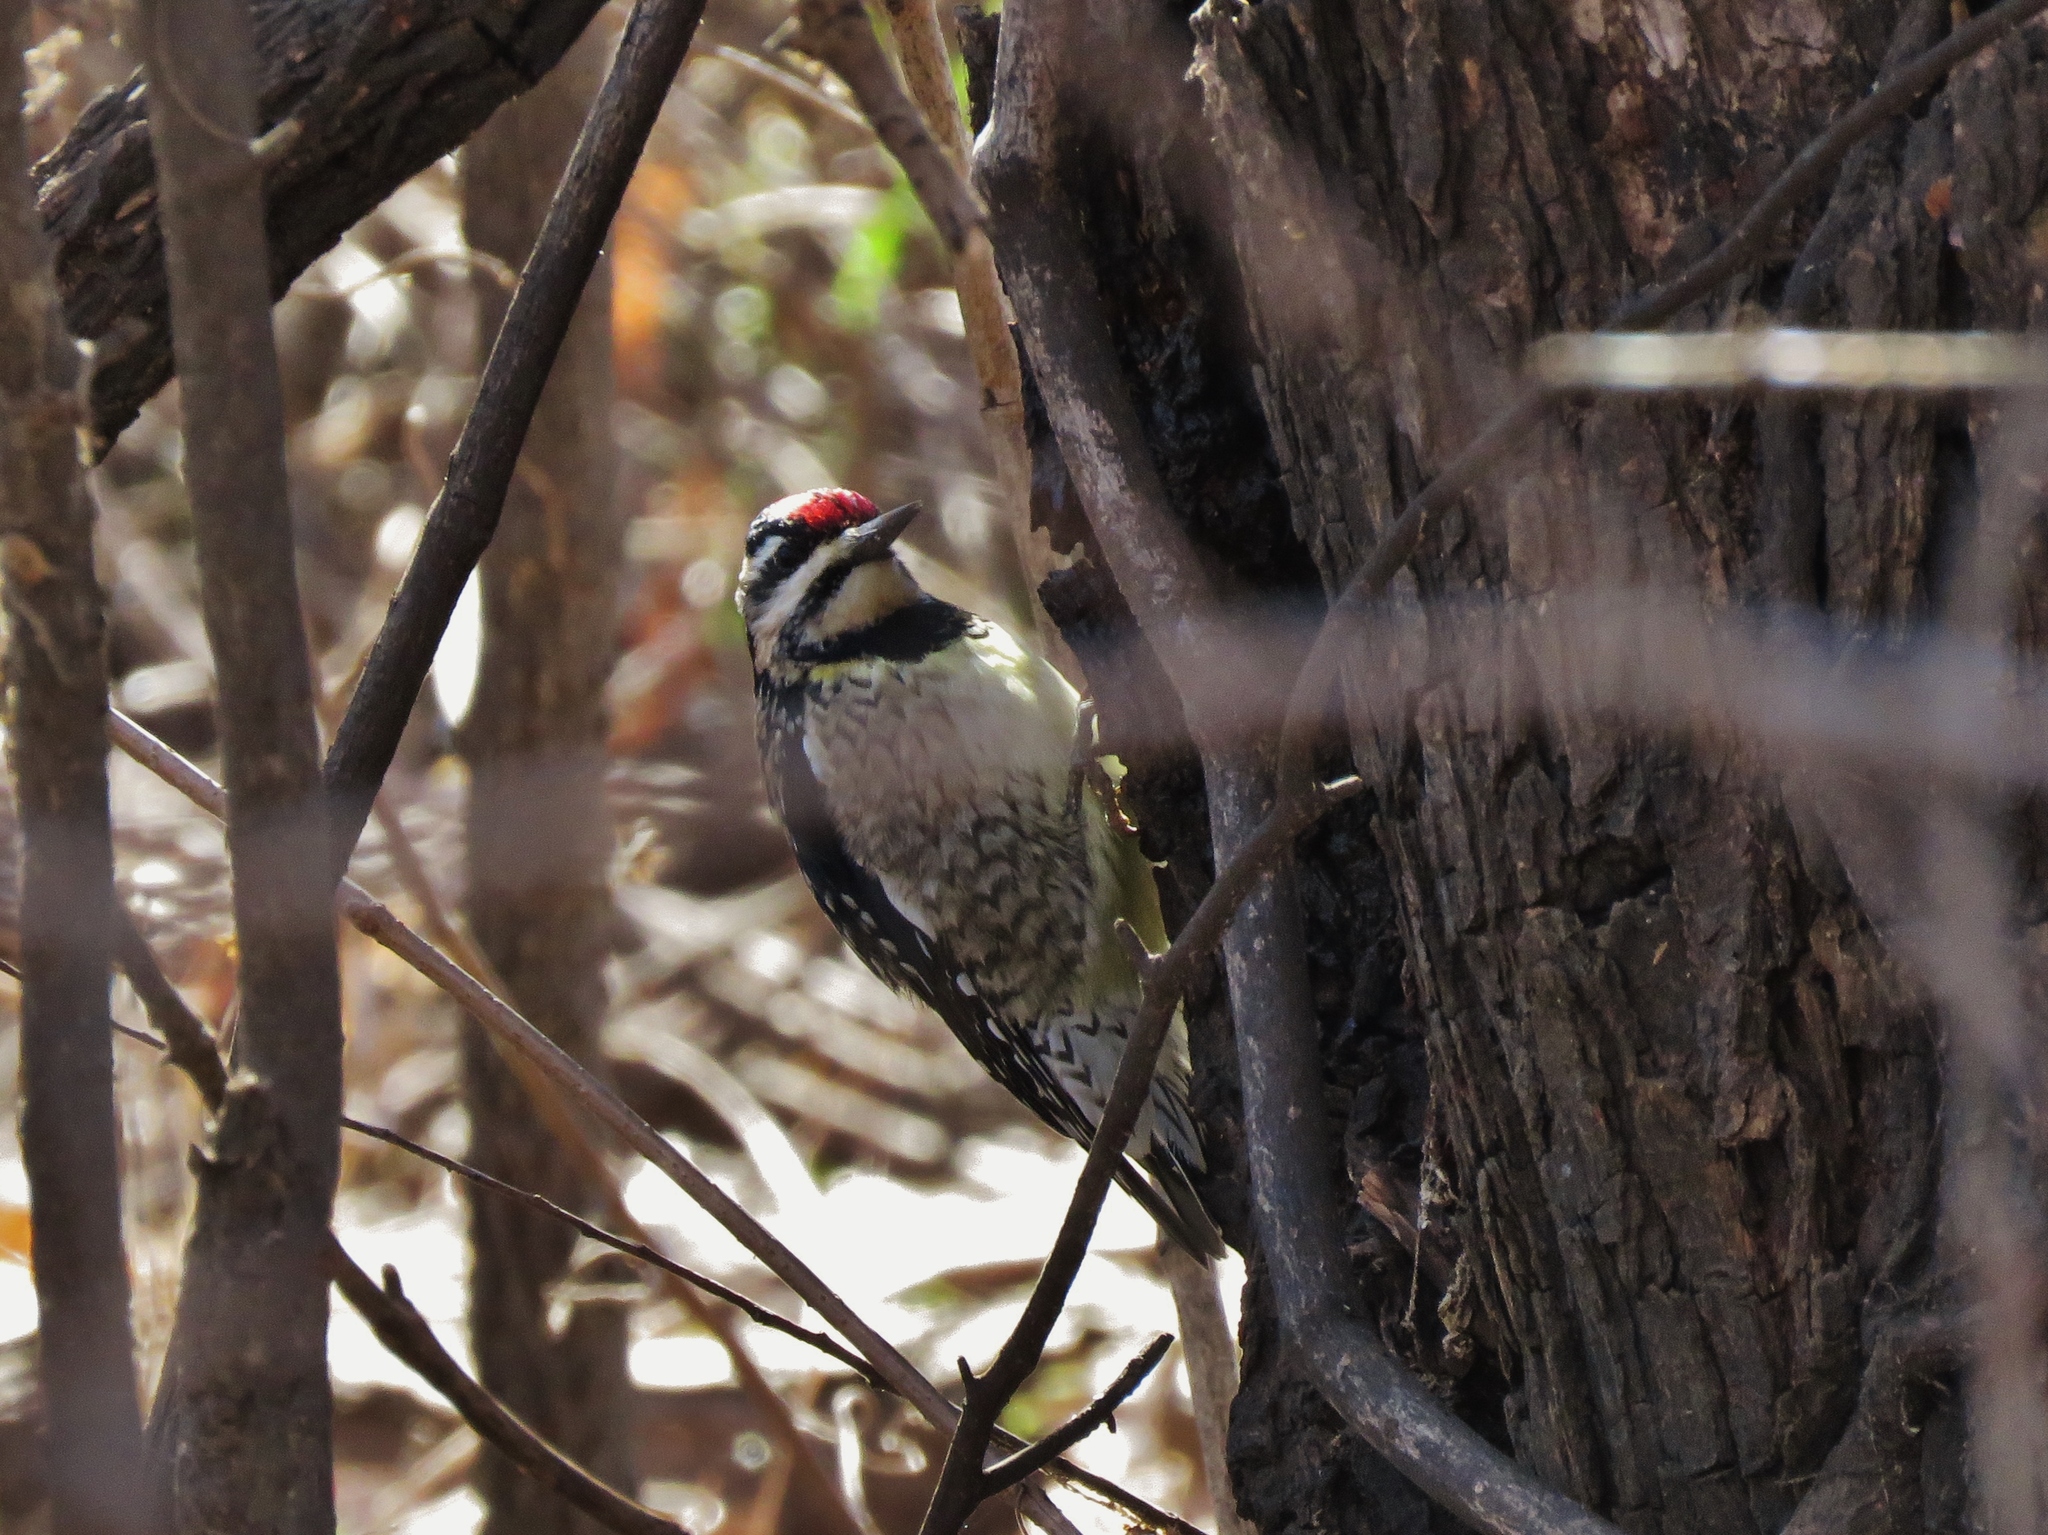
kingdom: Animalia
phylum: Chordata
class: Aves
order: Piciformes
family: Picidae
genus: Sphyrapicus
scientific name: Sphyrapicus varius
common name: Yellow-bellied sapsucker
